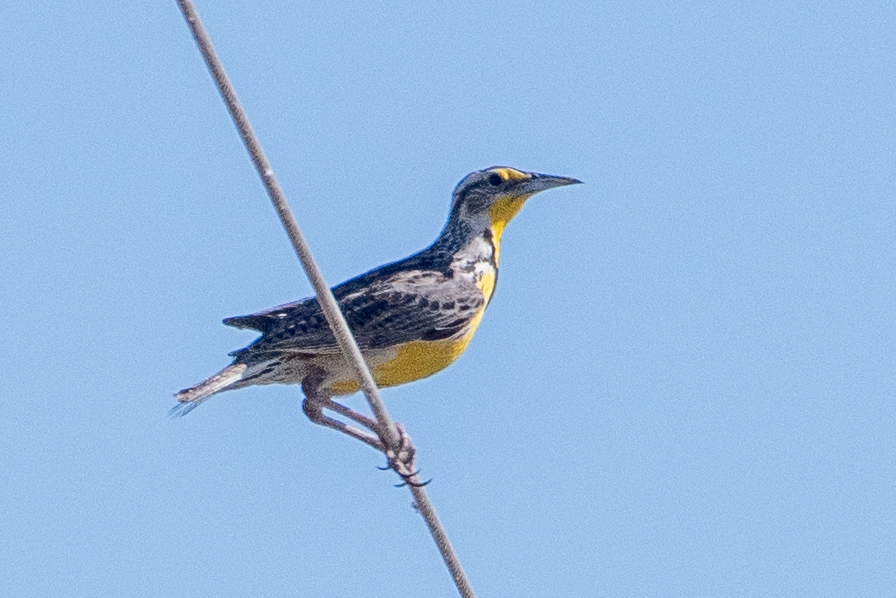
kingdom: Animalia
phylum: Chordata
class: Aves
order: Passeriformes
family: Icteridae
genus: Sturnella
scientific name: Sturnella neglecta
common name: Western meadowlark
